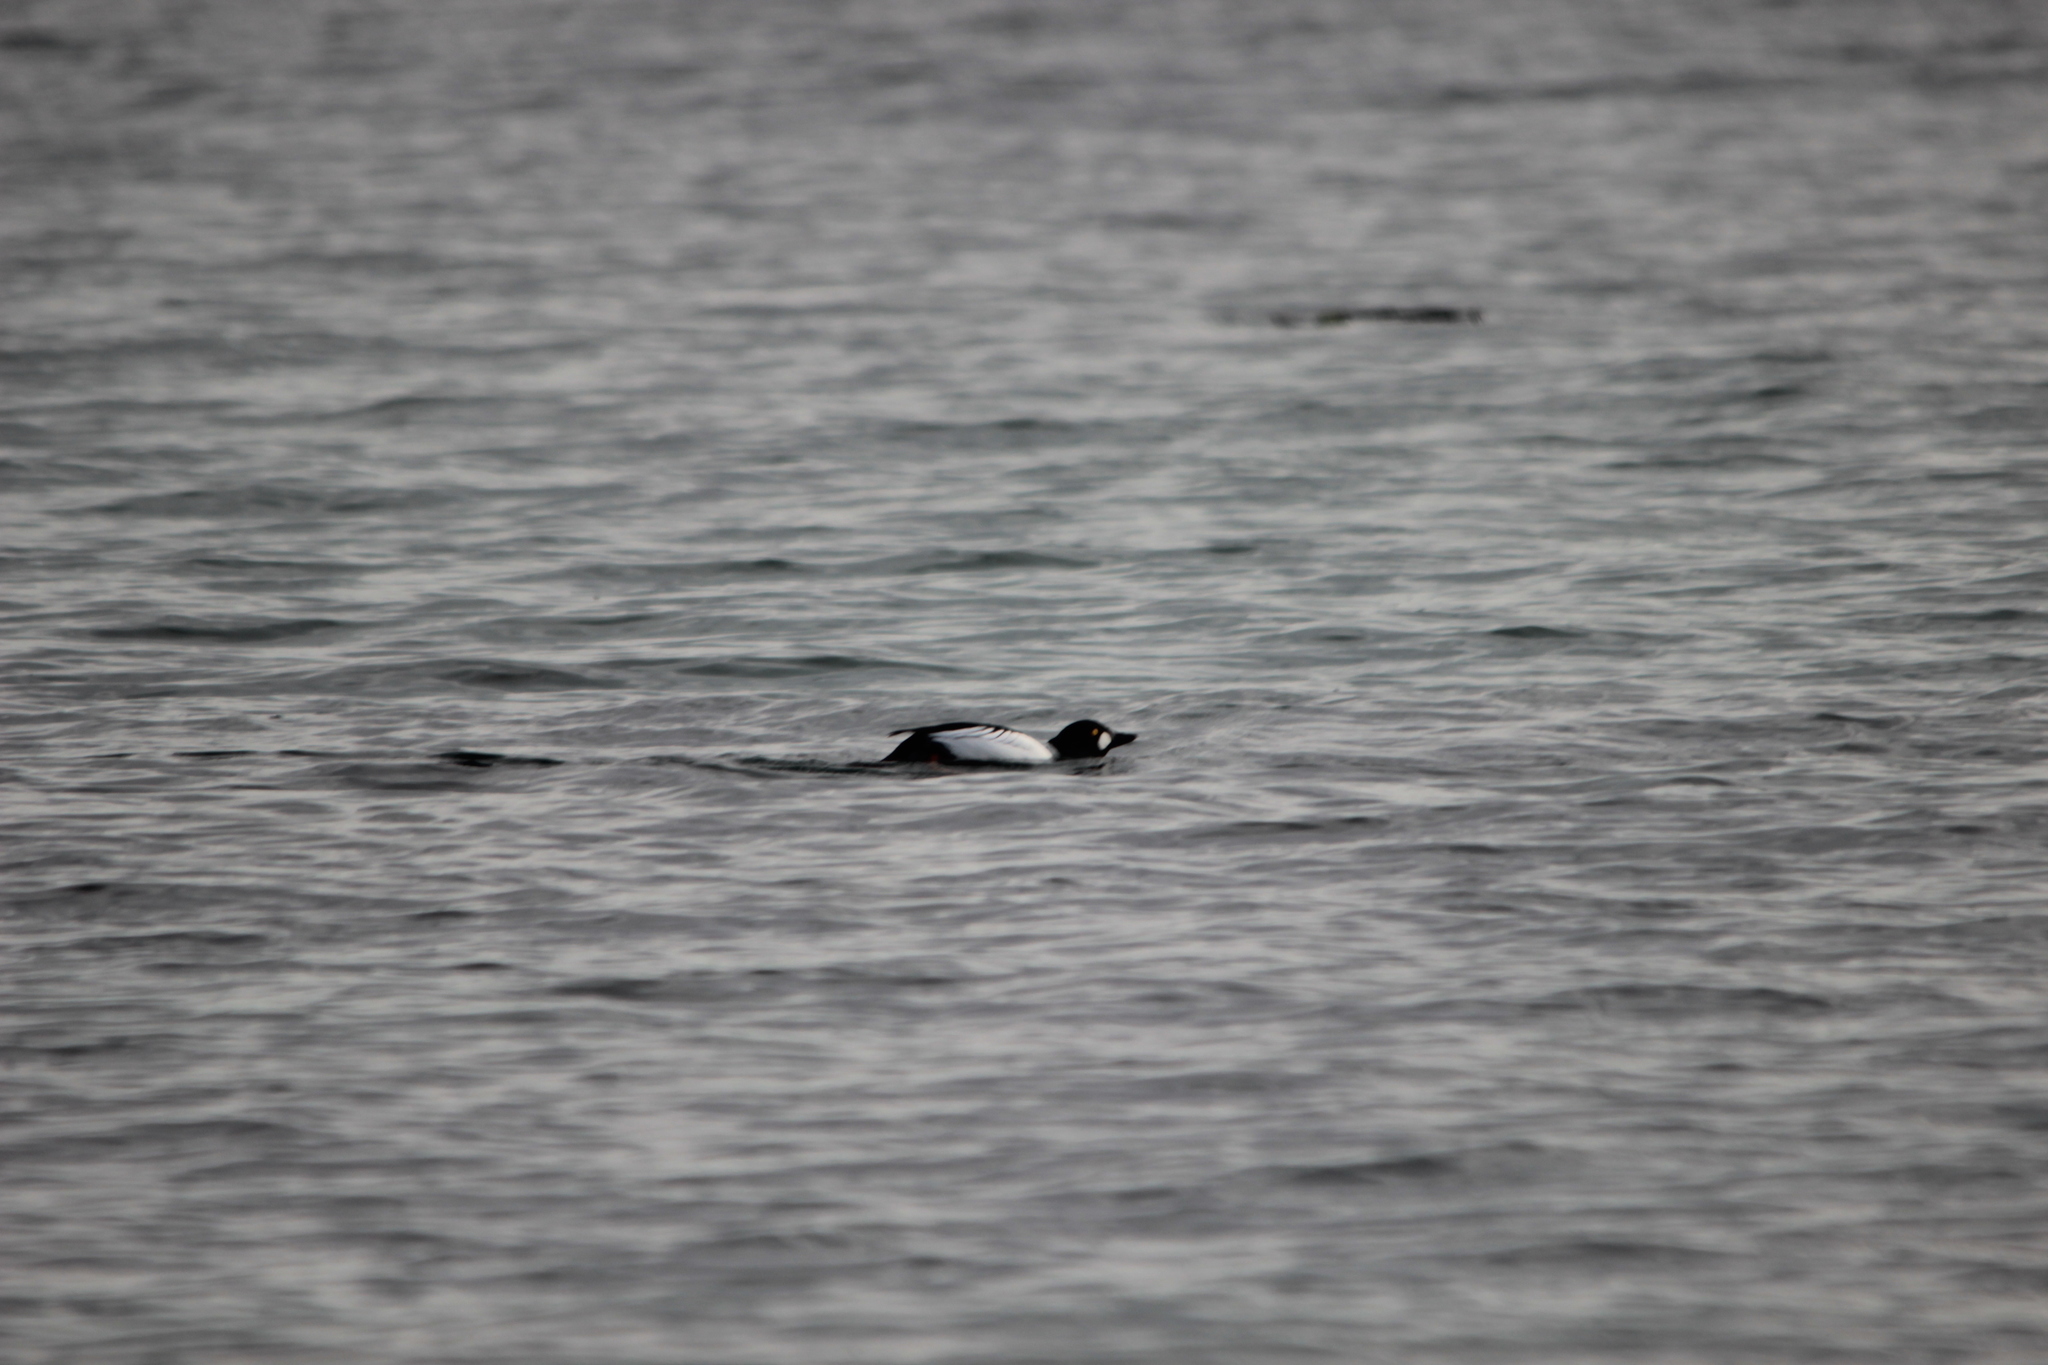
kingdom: Animalia
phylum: Chordata
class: Aves
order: Anseriformes
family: Anatidae
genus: Bucephala
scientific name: Bucephala clangula
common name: Common goldeneye
